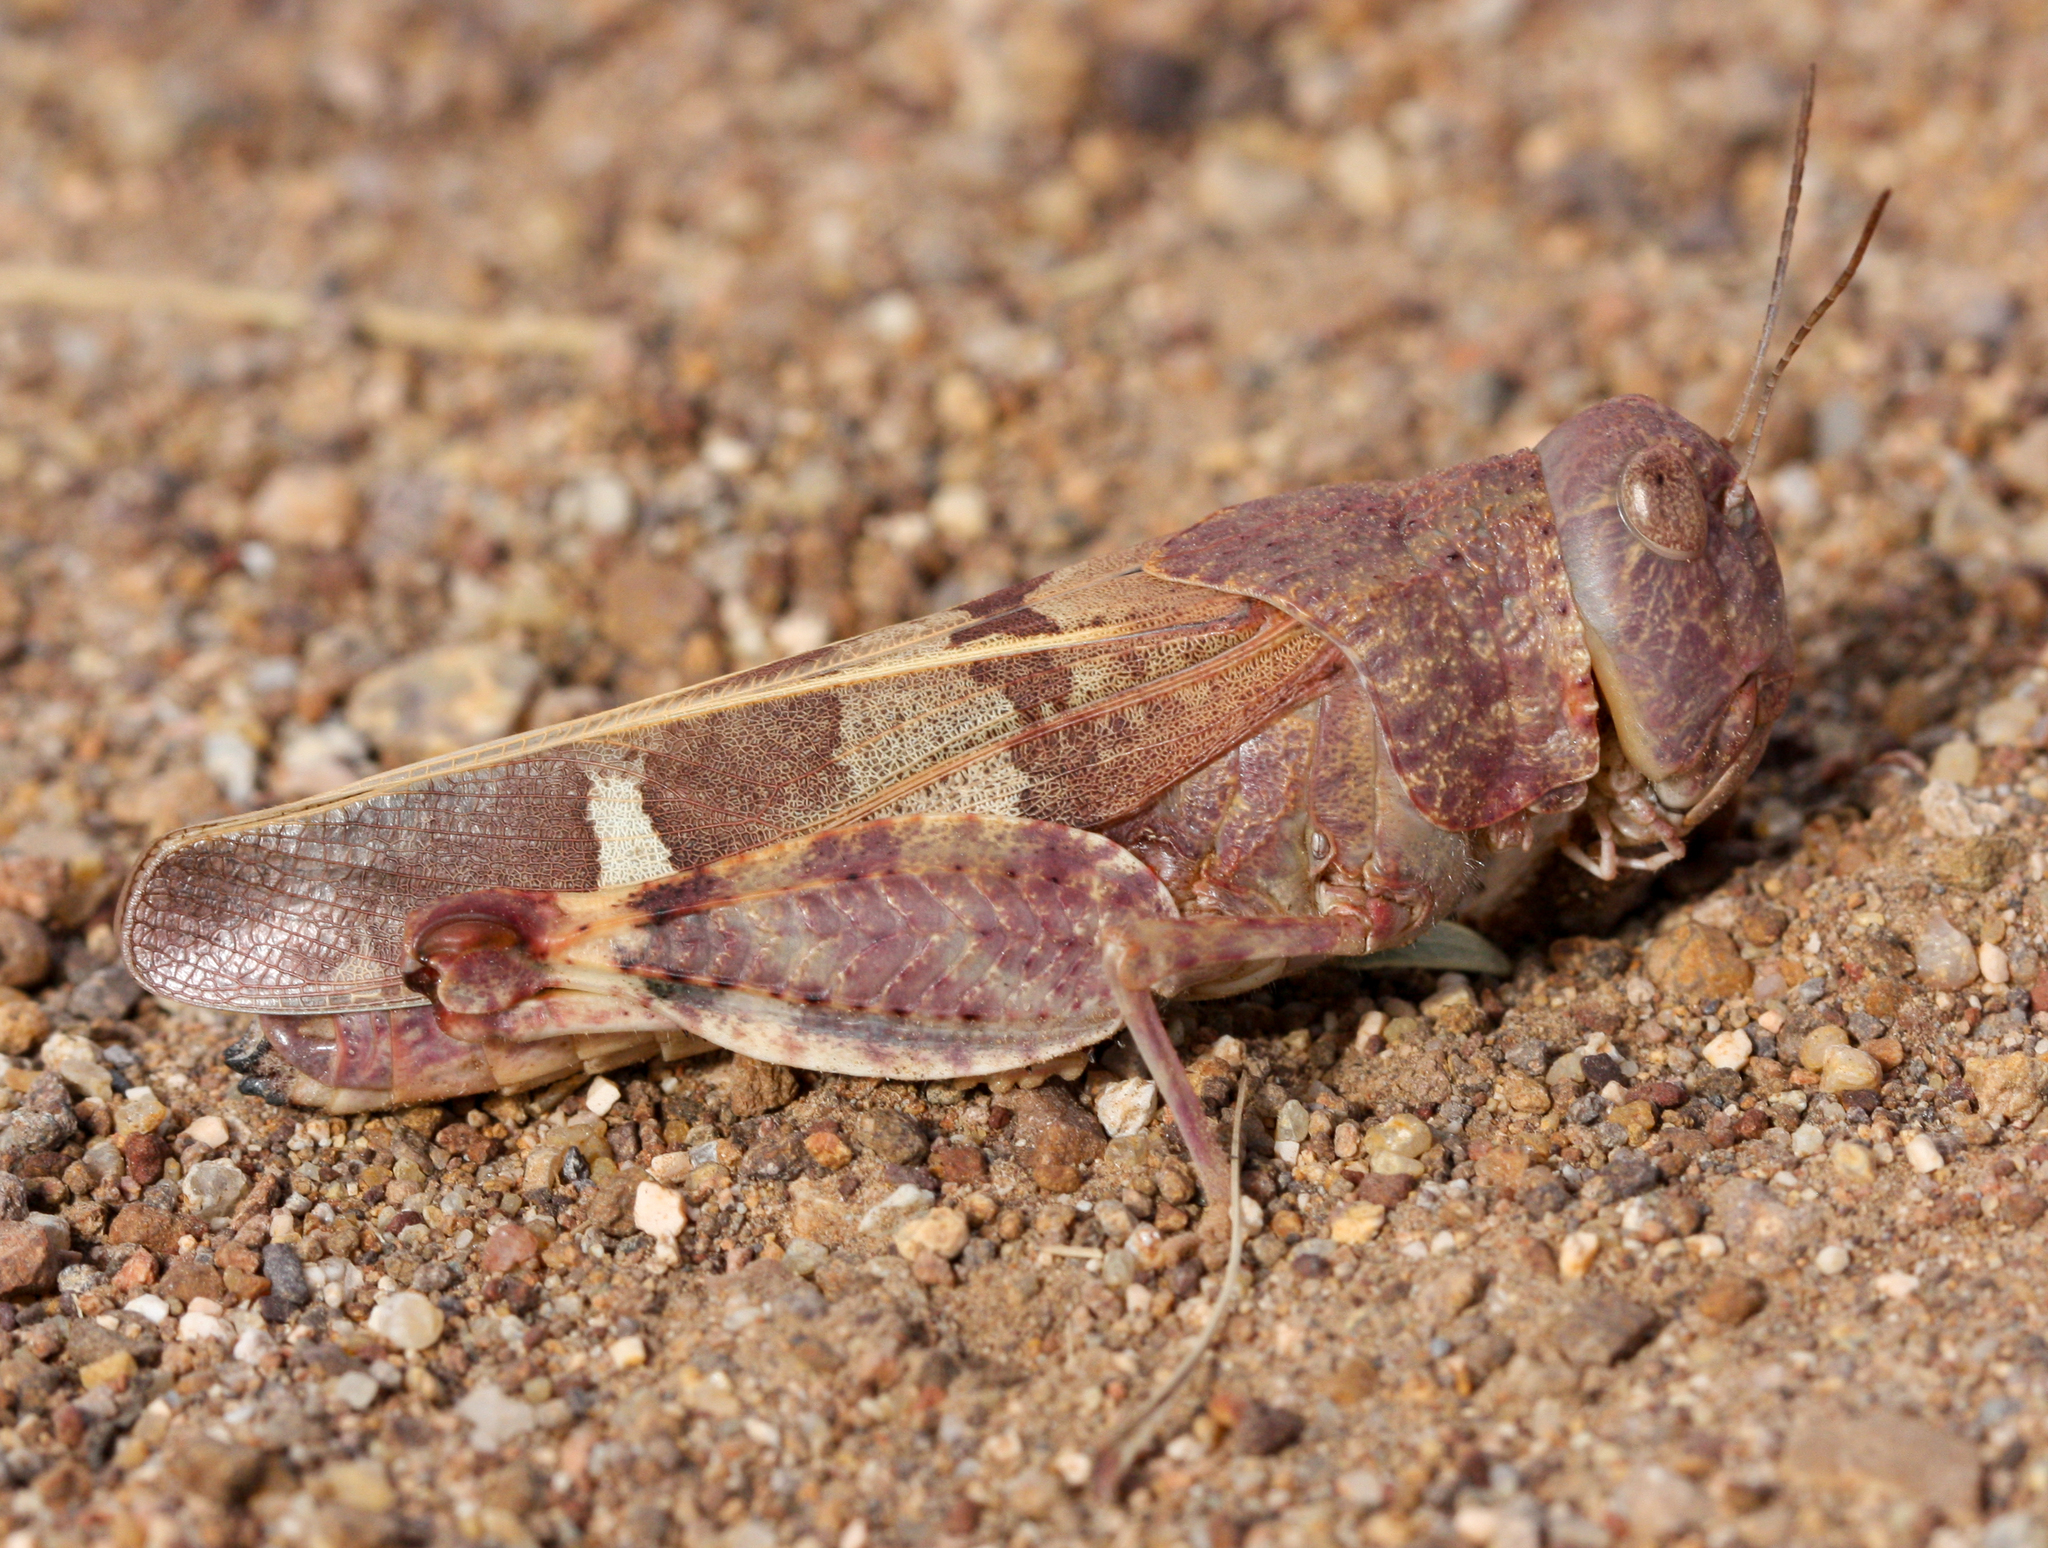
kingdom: Animalia
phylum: Arthropoda
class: Insecta
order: Orthoptera
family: Acrididae
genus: Leprus
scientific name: Leprus wheelerii
